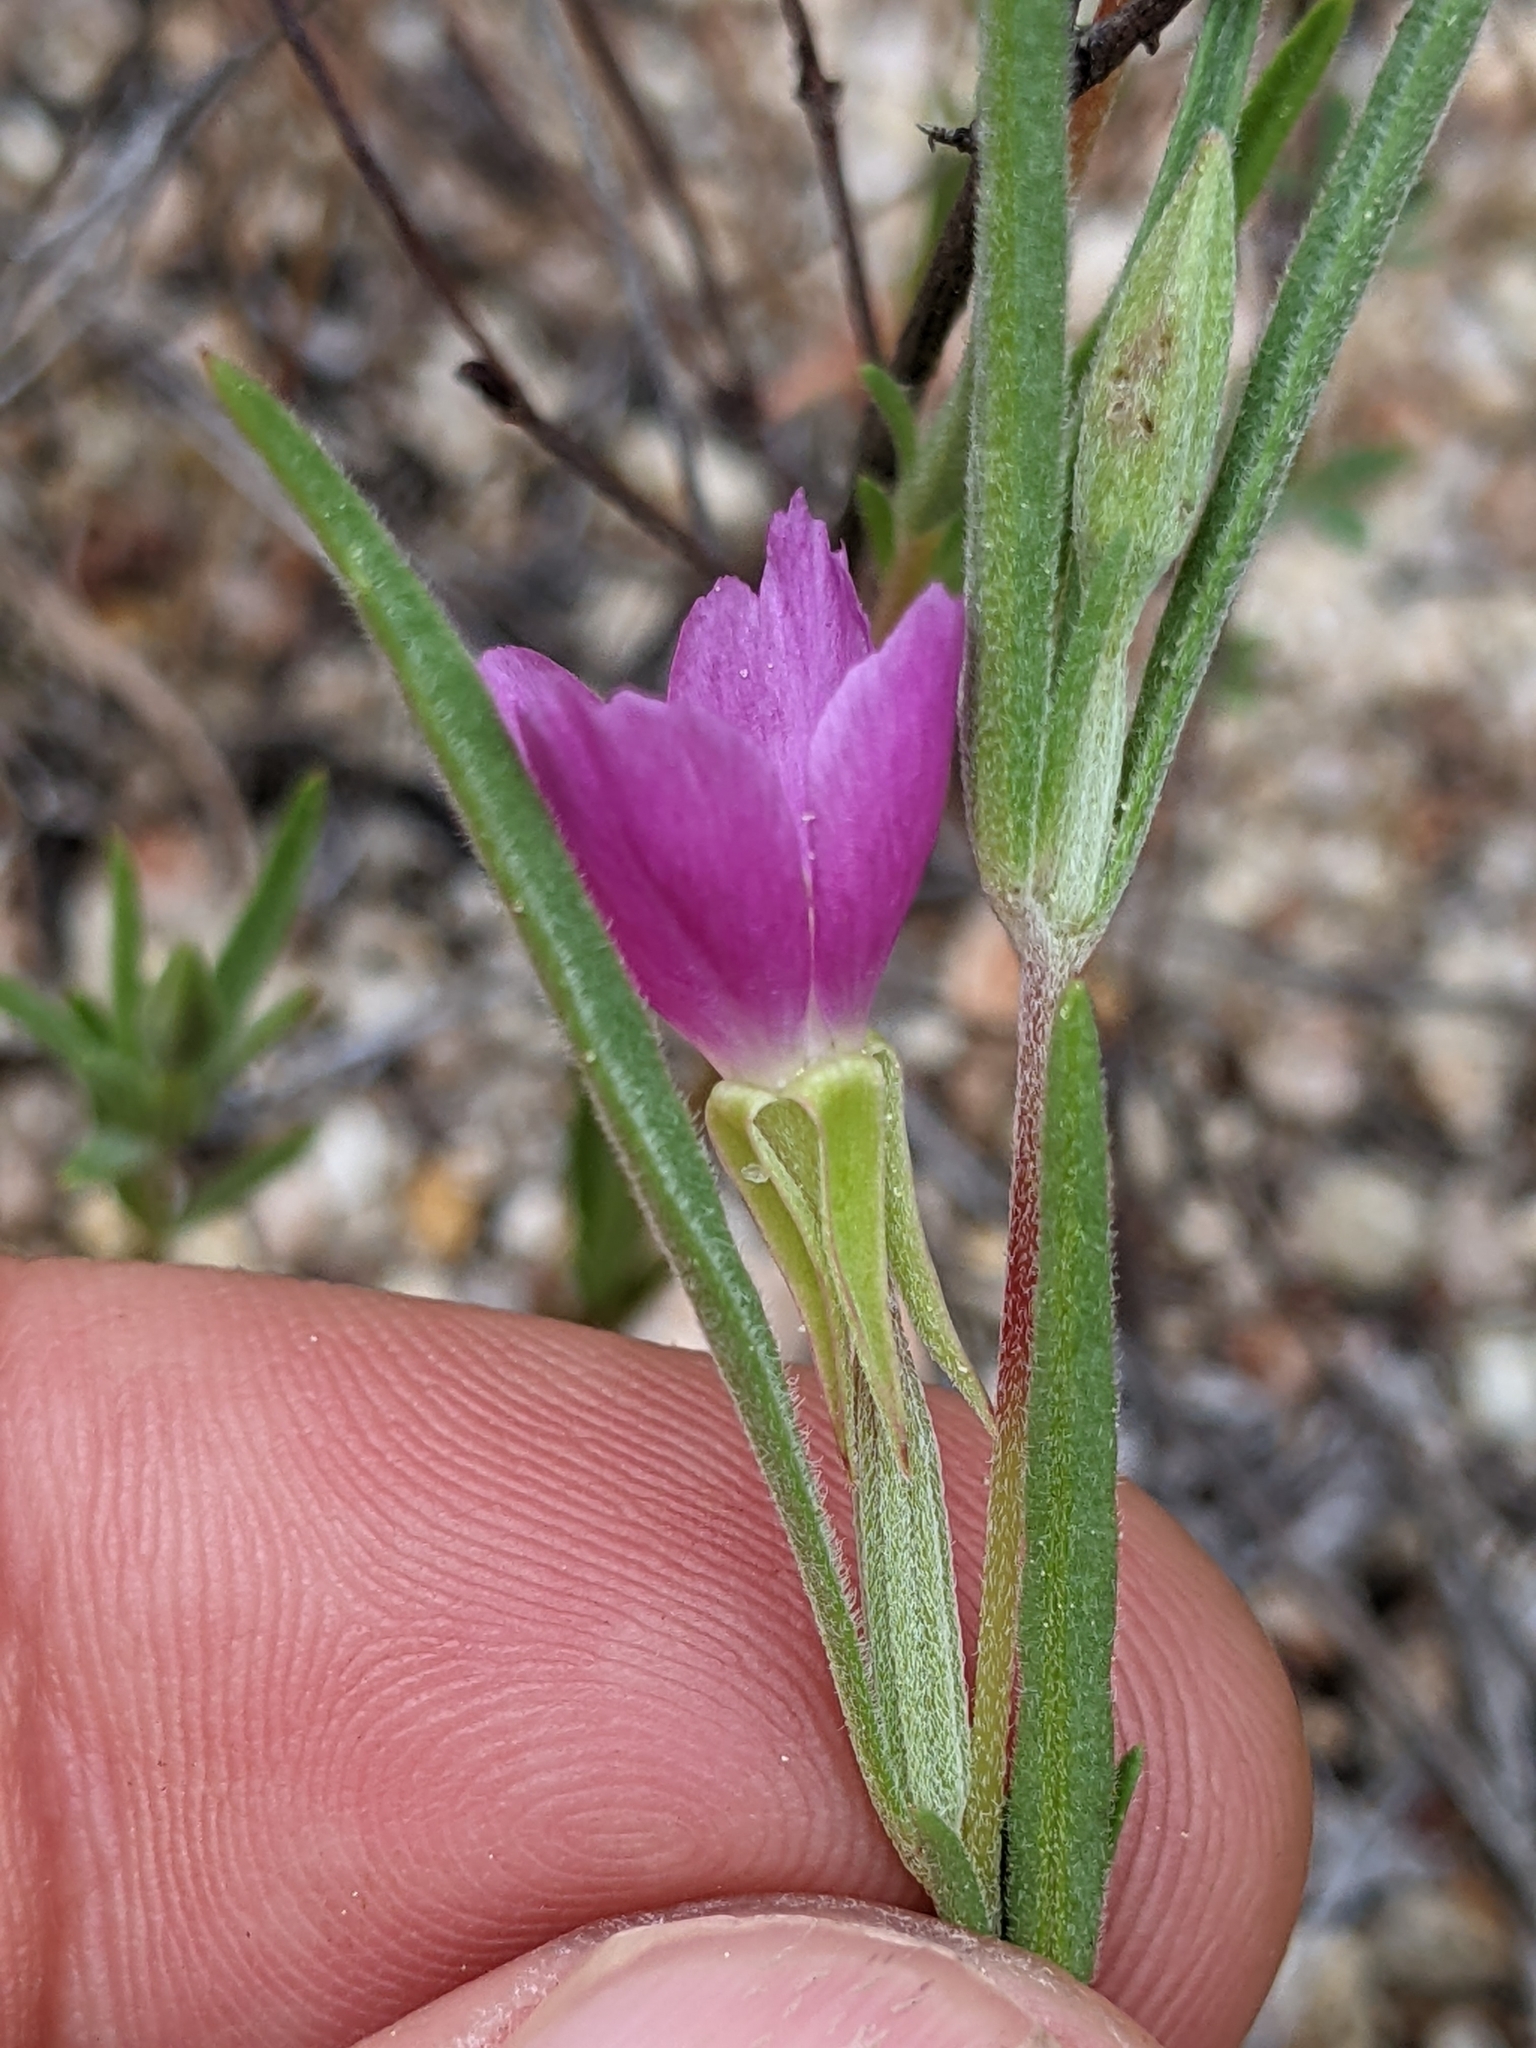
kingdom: Plantae
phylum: Tracheophyta
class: Magnoliopsida
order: Myrtales
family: Onagraceae
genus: Clarkia
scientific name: Clarkia purpurea
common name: Purple clarkia
